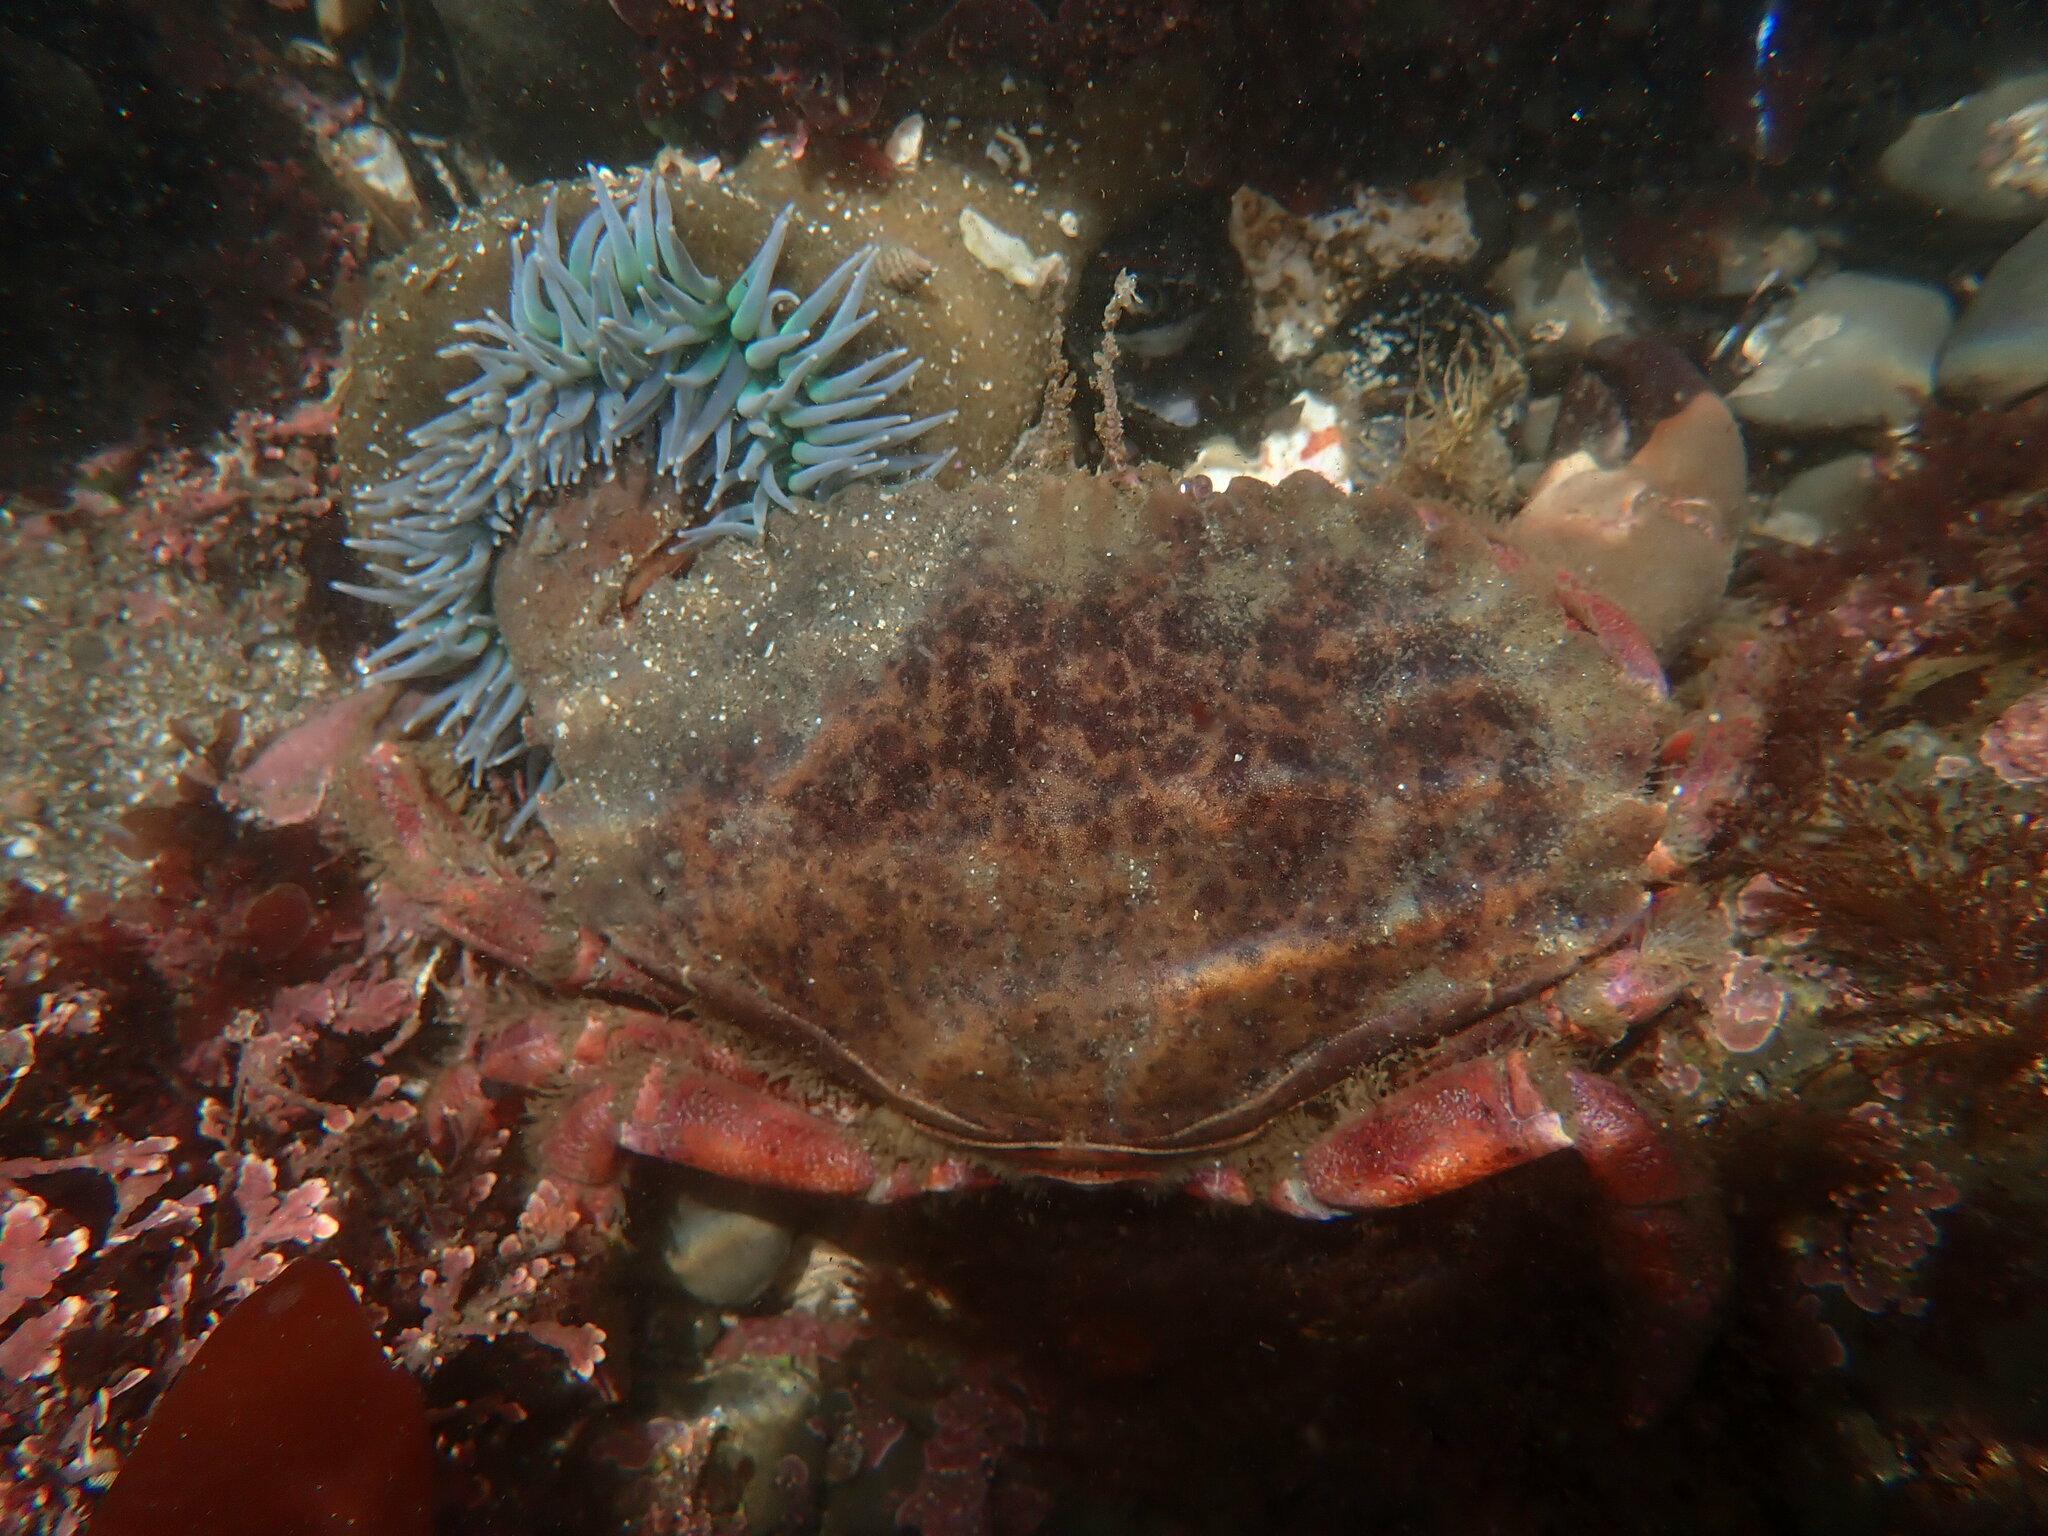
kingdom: Animalia
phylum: Arthropoda
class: Malacostraca
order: Decapoda
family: Cancridae
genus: Romaleon
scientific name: Romaleon antennarium
